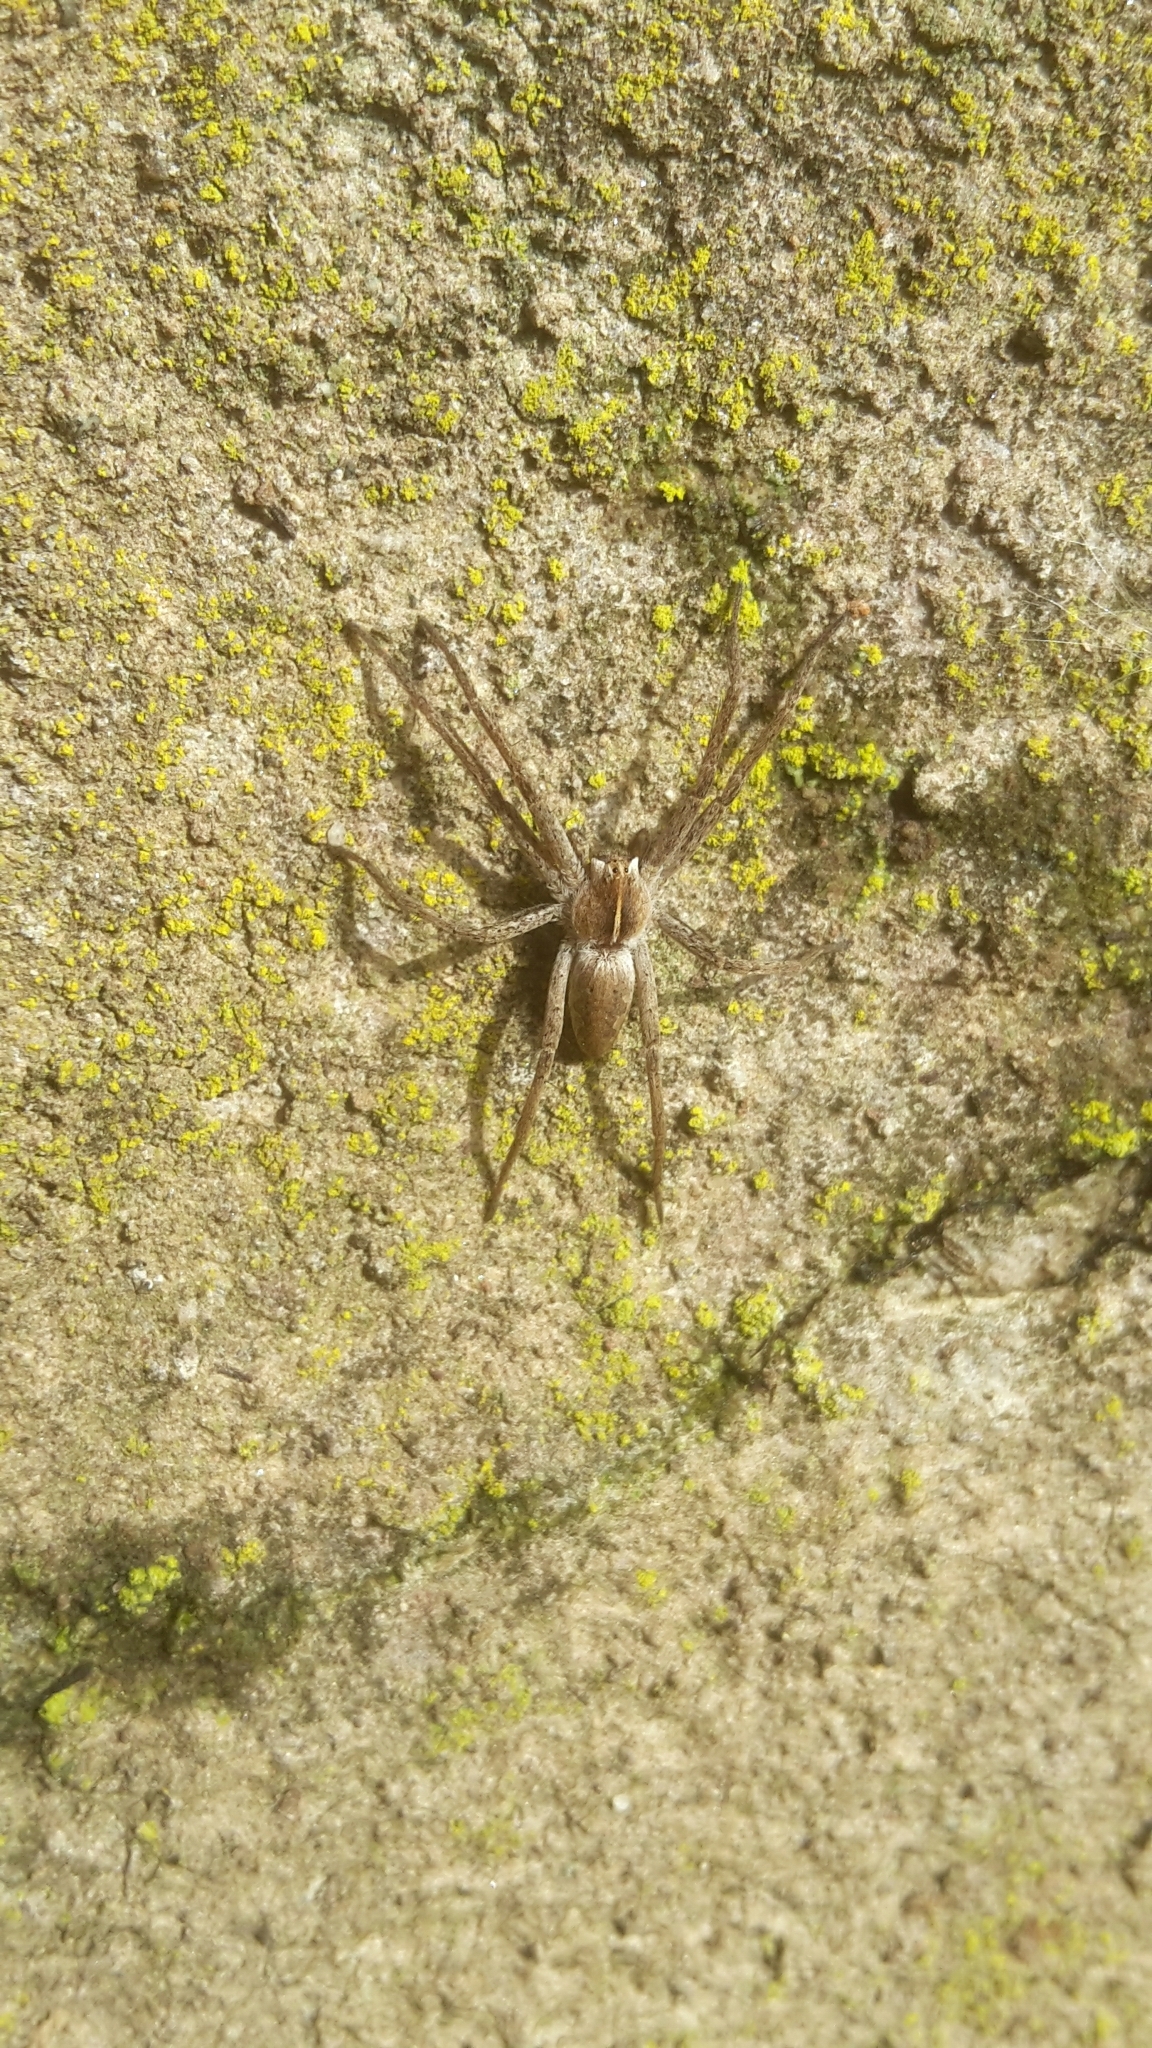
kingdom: Animalia
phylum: Arthropoda
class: Arachnida
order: Araneae
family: Pisauridae
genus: Pisaura
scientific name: Pisaura mirabilis
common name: Tent spider
